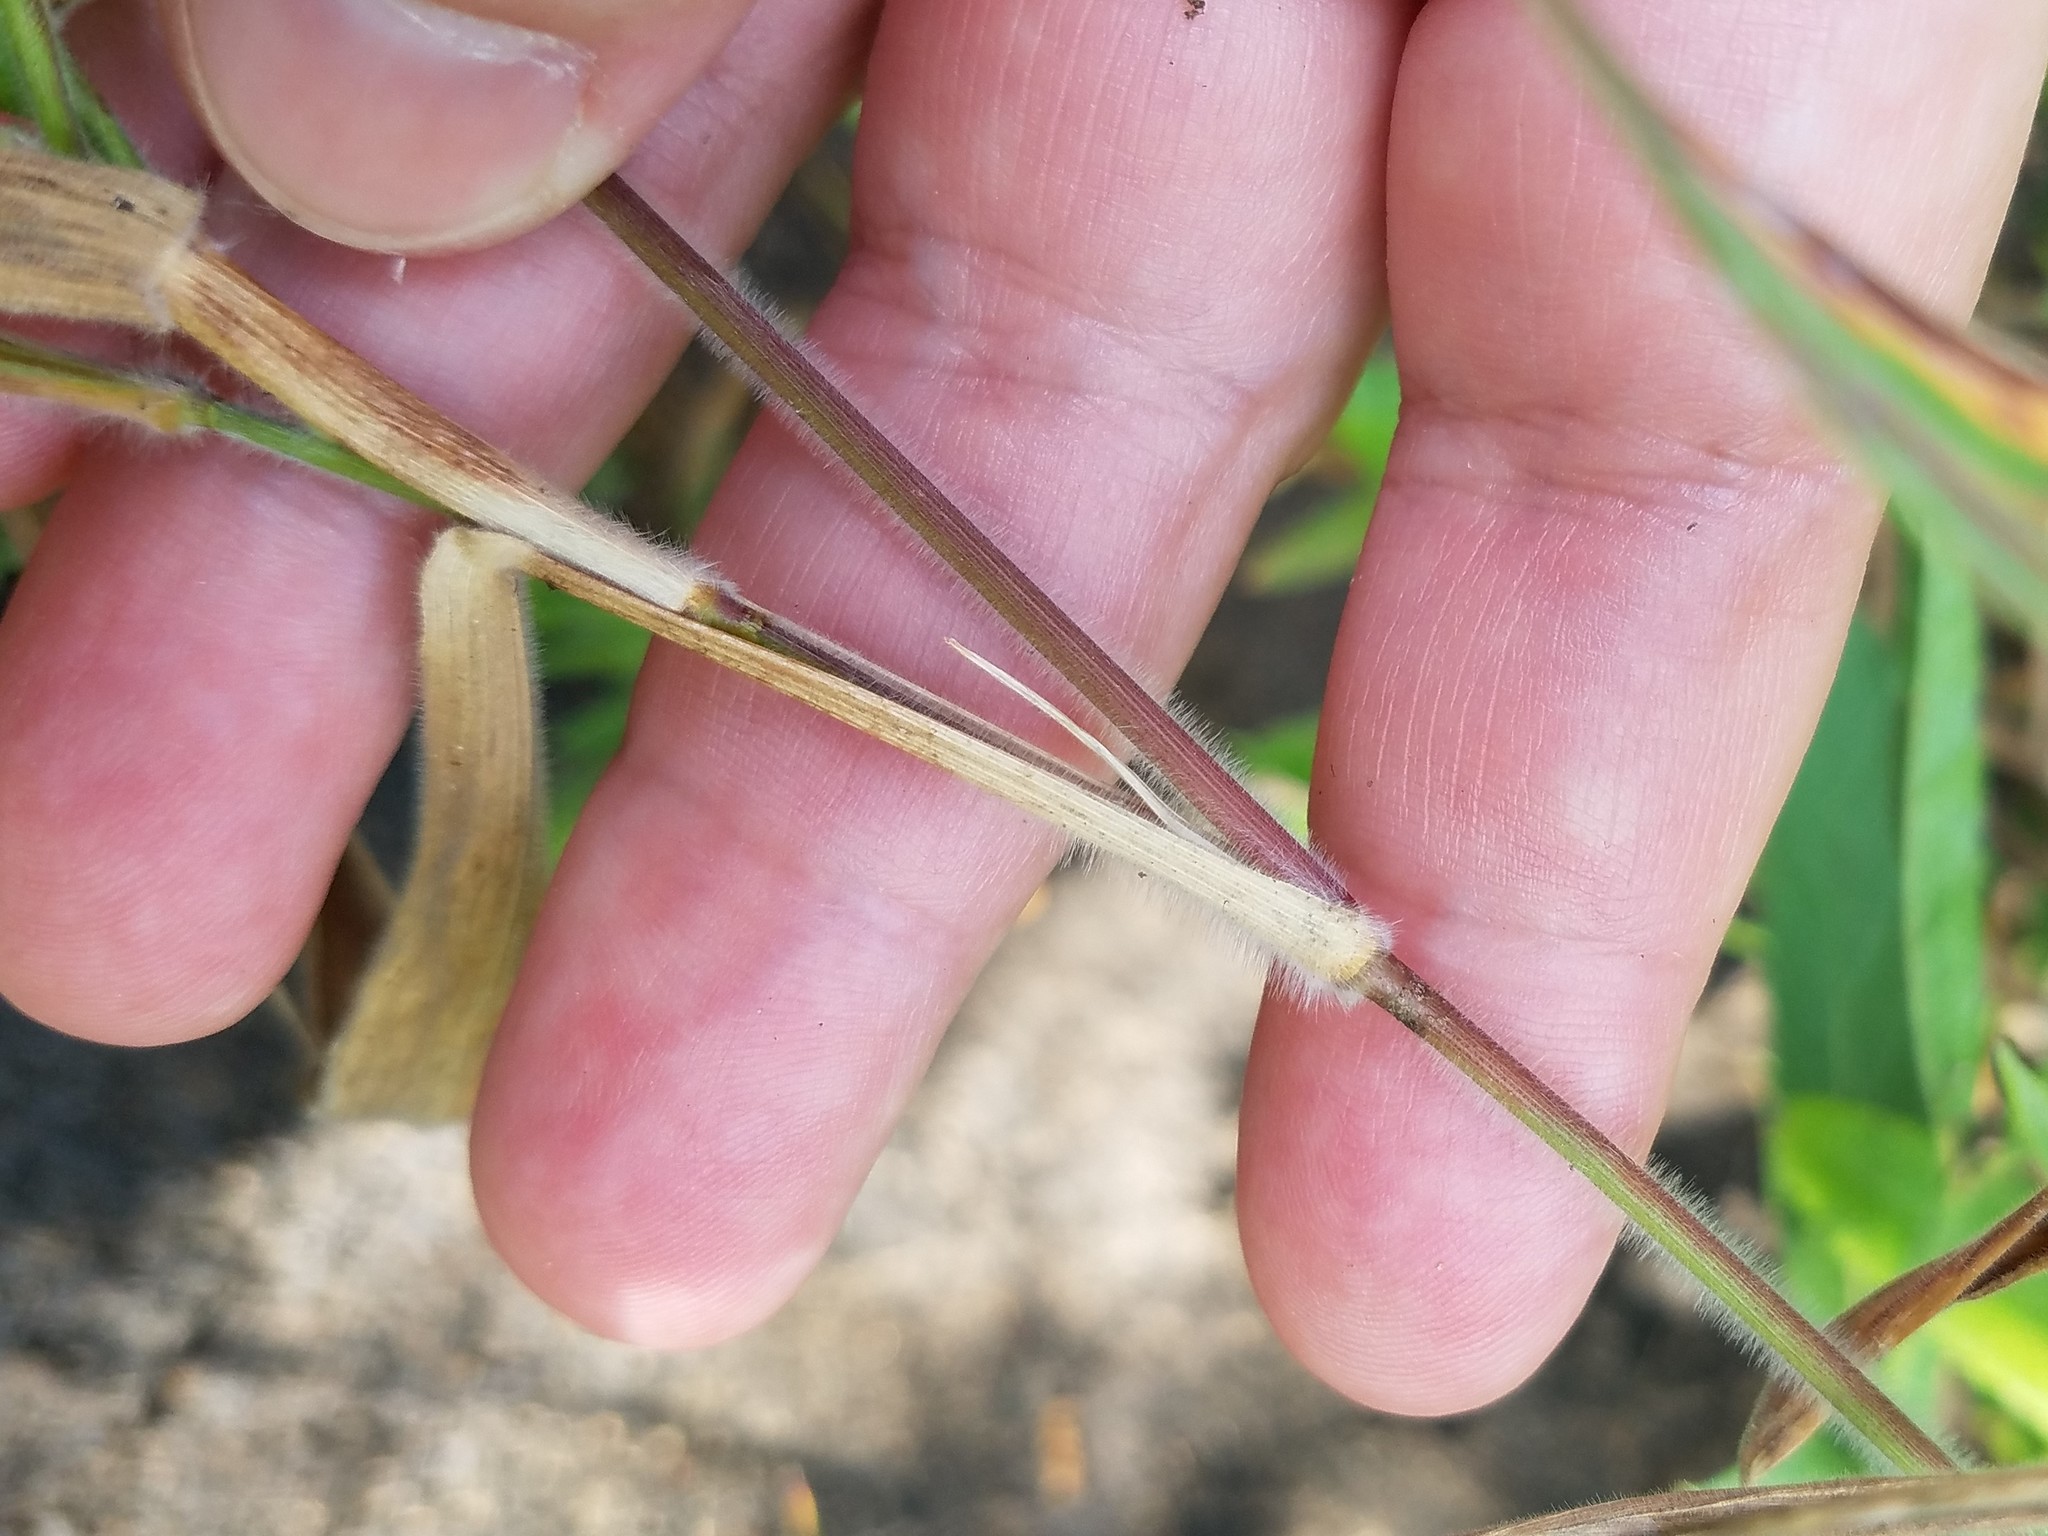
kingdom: Plantae
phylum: Tracheophyta
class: Liliopsida
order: Poales
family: Poaceae
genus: Dichanthelium
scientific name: Dichanthelium scoparium
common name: Velvety panic grass
